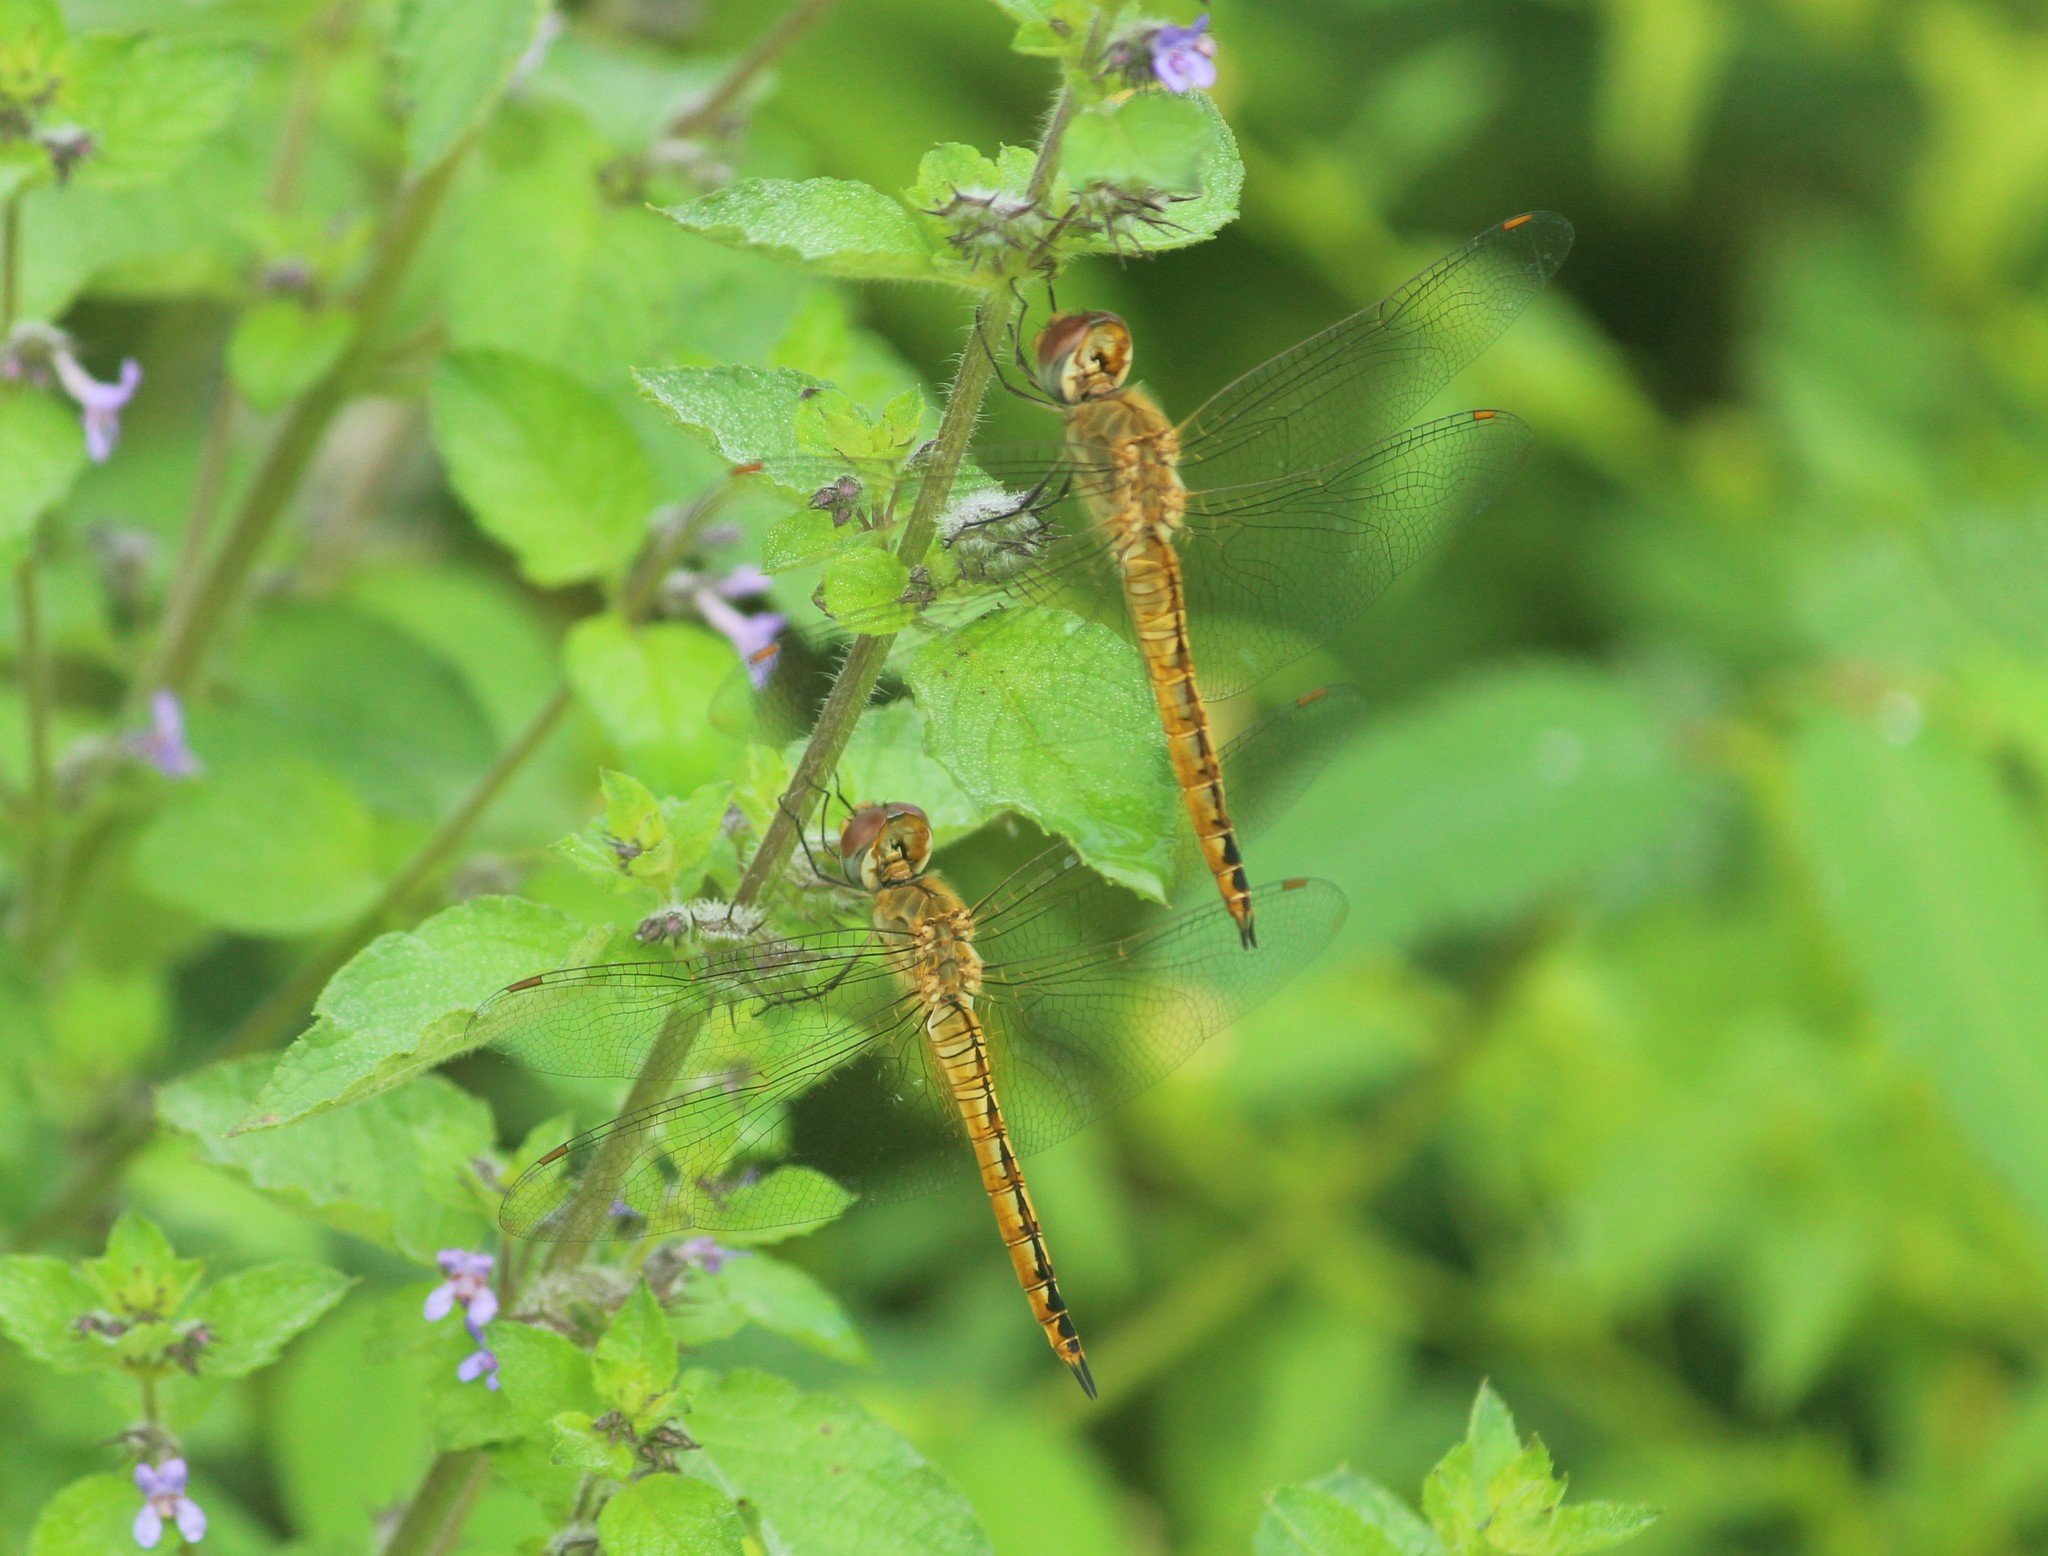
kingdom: Animalia
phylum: Arthropoda
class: Insecta
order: Odonata
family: Libellulidae
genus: Pantala
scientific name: Pantala flavescens
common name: Wandering glider
